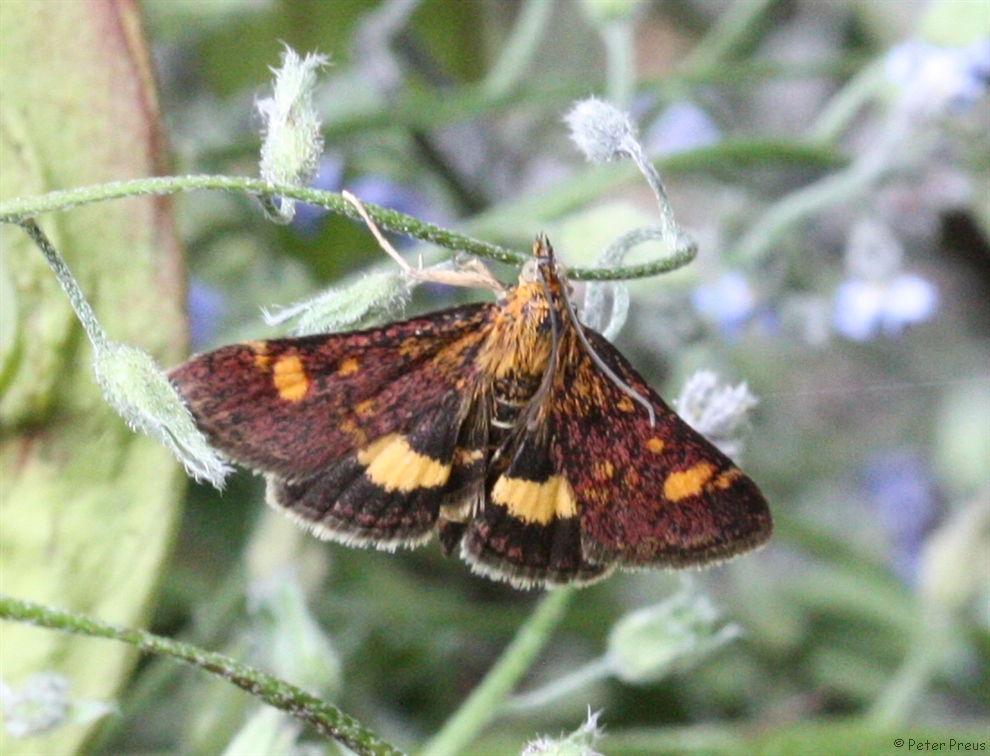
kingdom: Animalia
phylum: Arthropoda
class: Insecta
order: Lepidoptera
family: Crambidae
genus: Pyrausta
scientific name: Pyrausta aurata
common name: Small purple & gold
